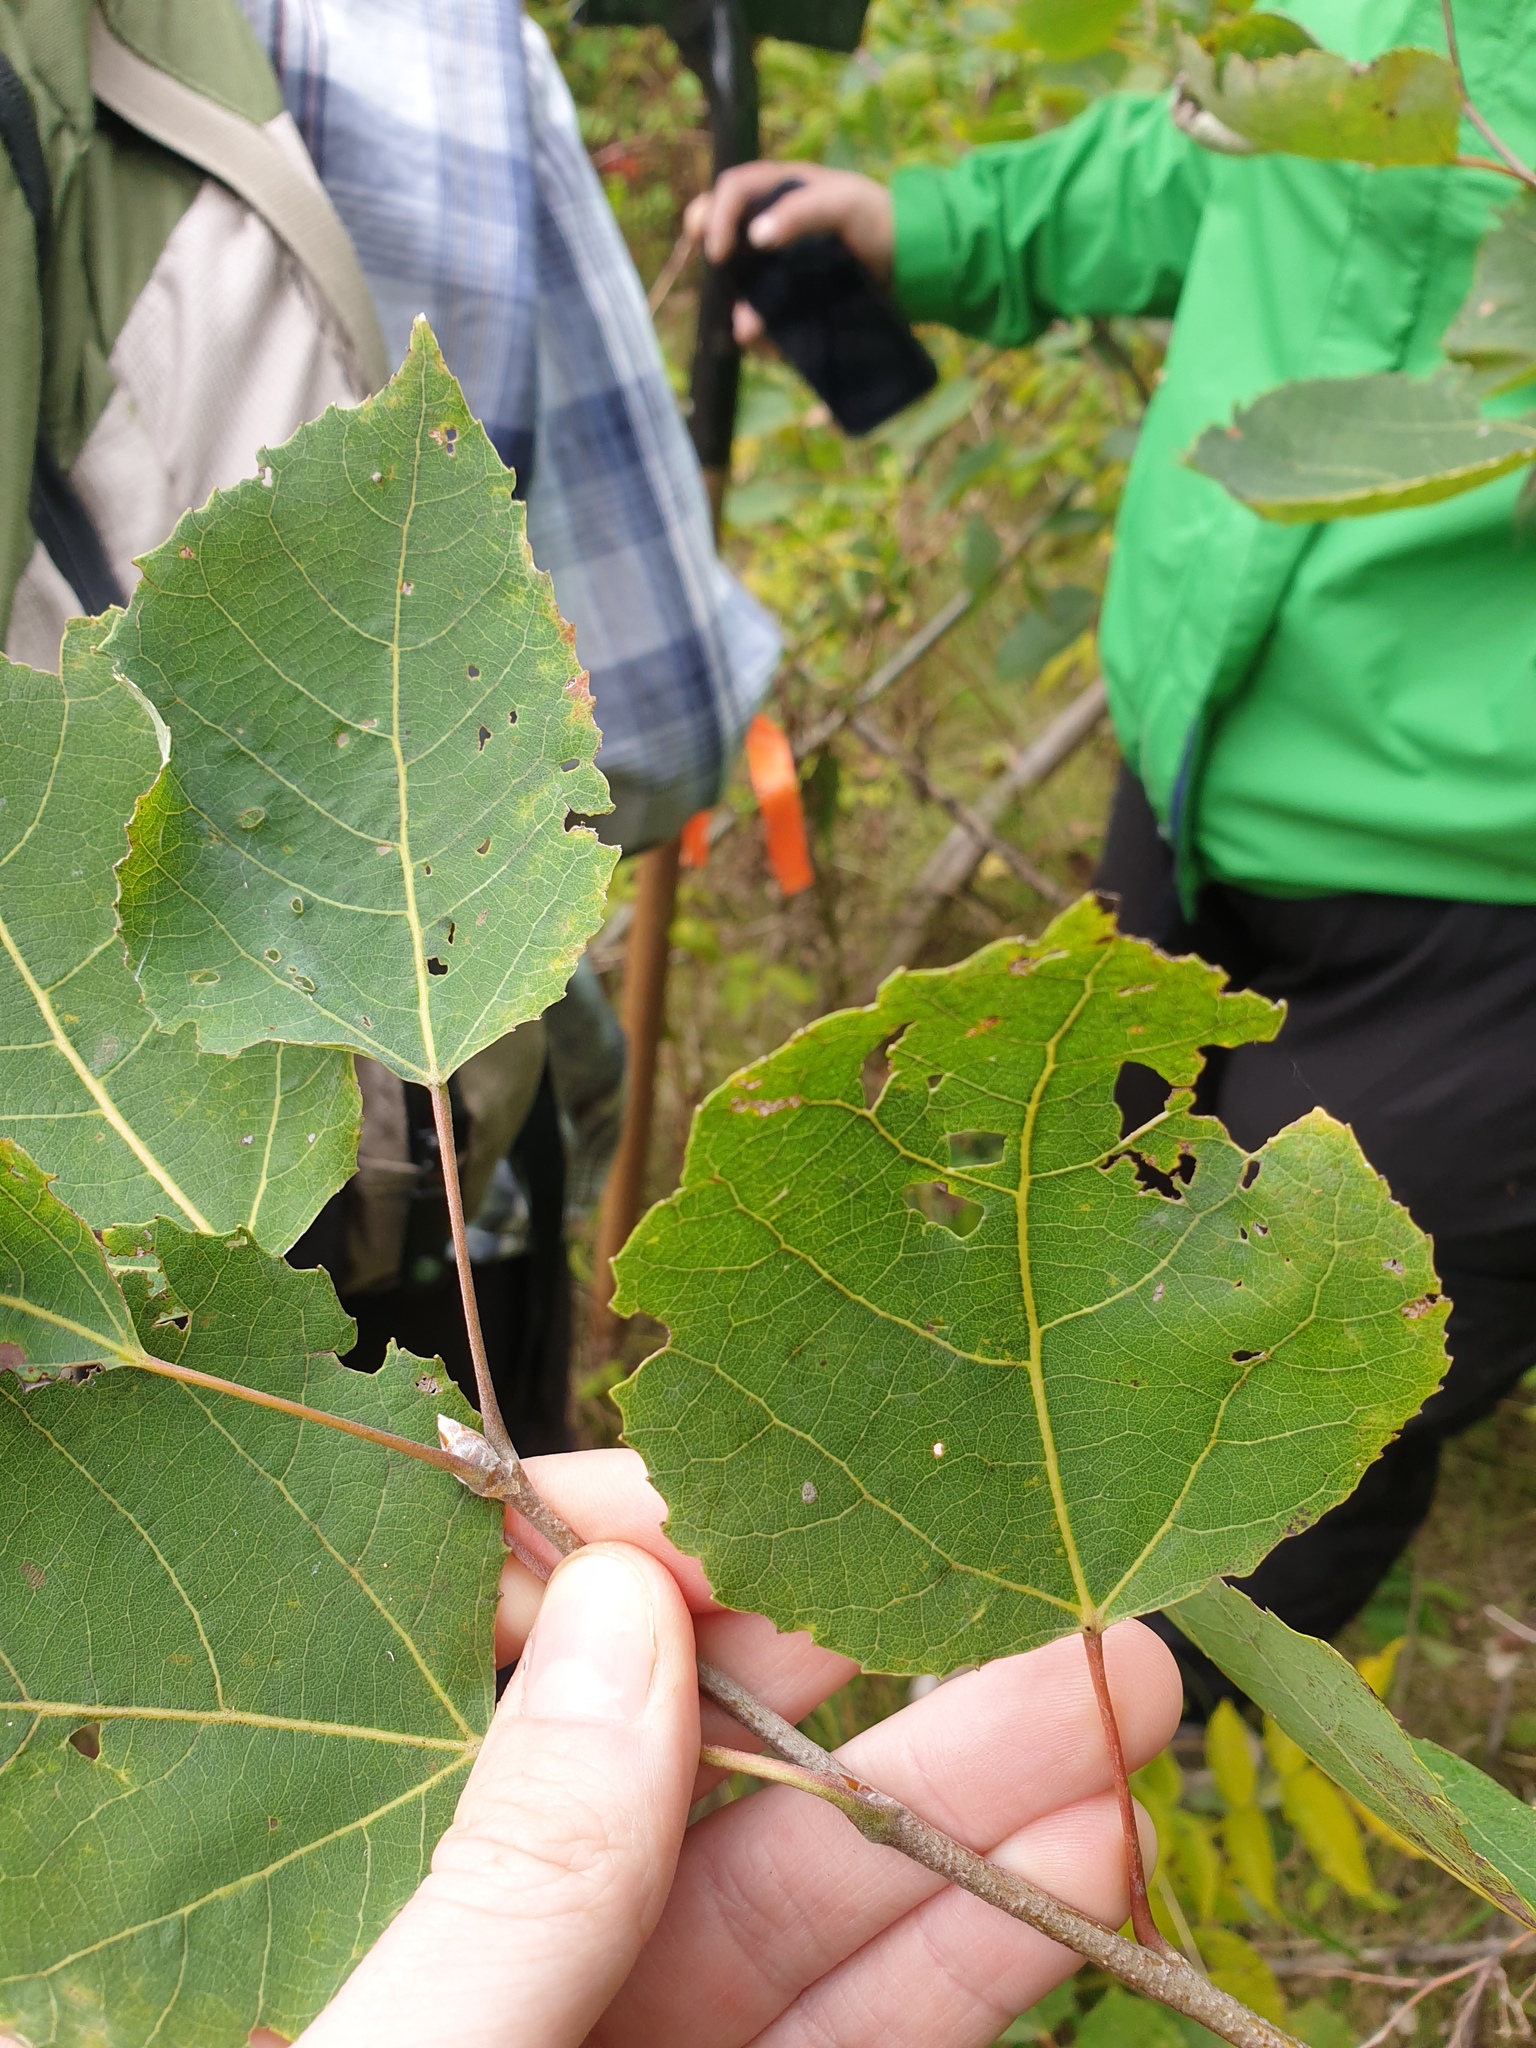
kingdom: Plantae
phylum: Tracheophyta
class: Magnoliopsida
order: Malpighiales
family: Salicaceae
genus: Populus
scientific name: Populus grandidentata
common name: Bigtooth aspen
